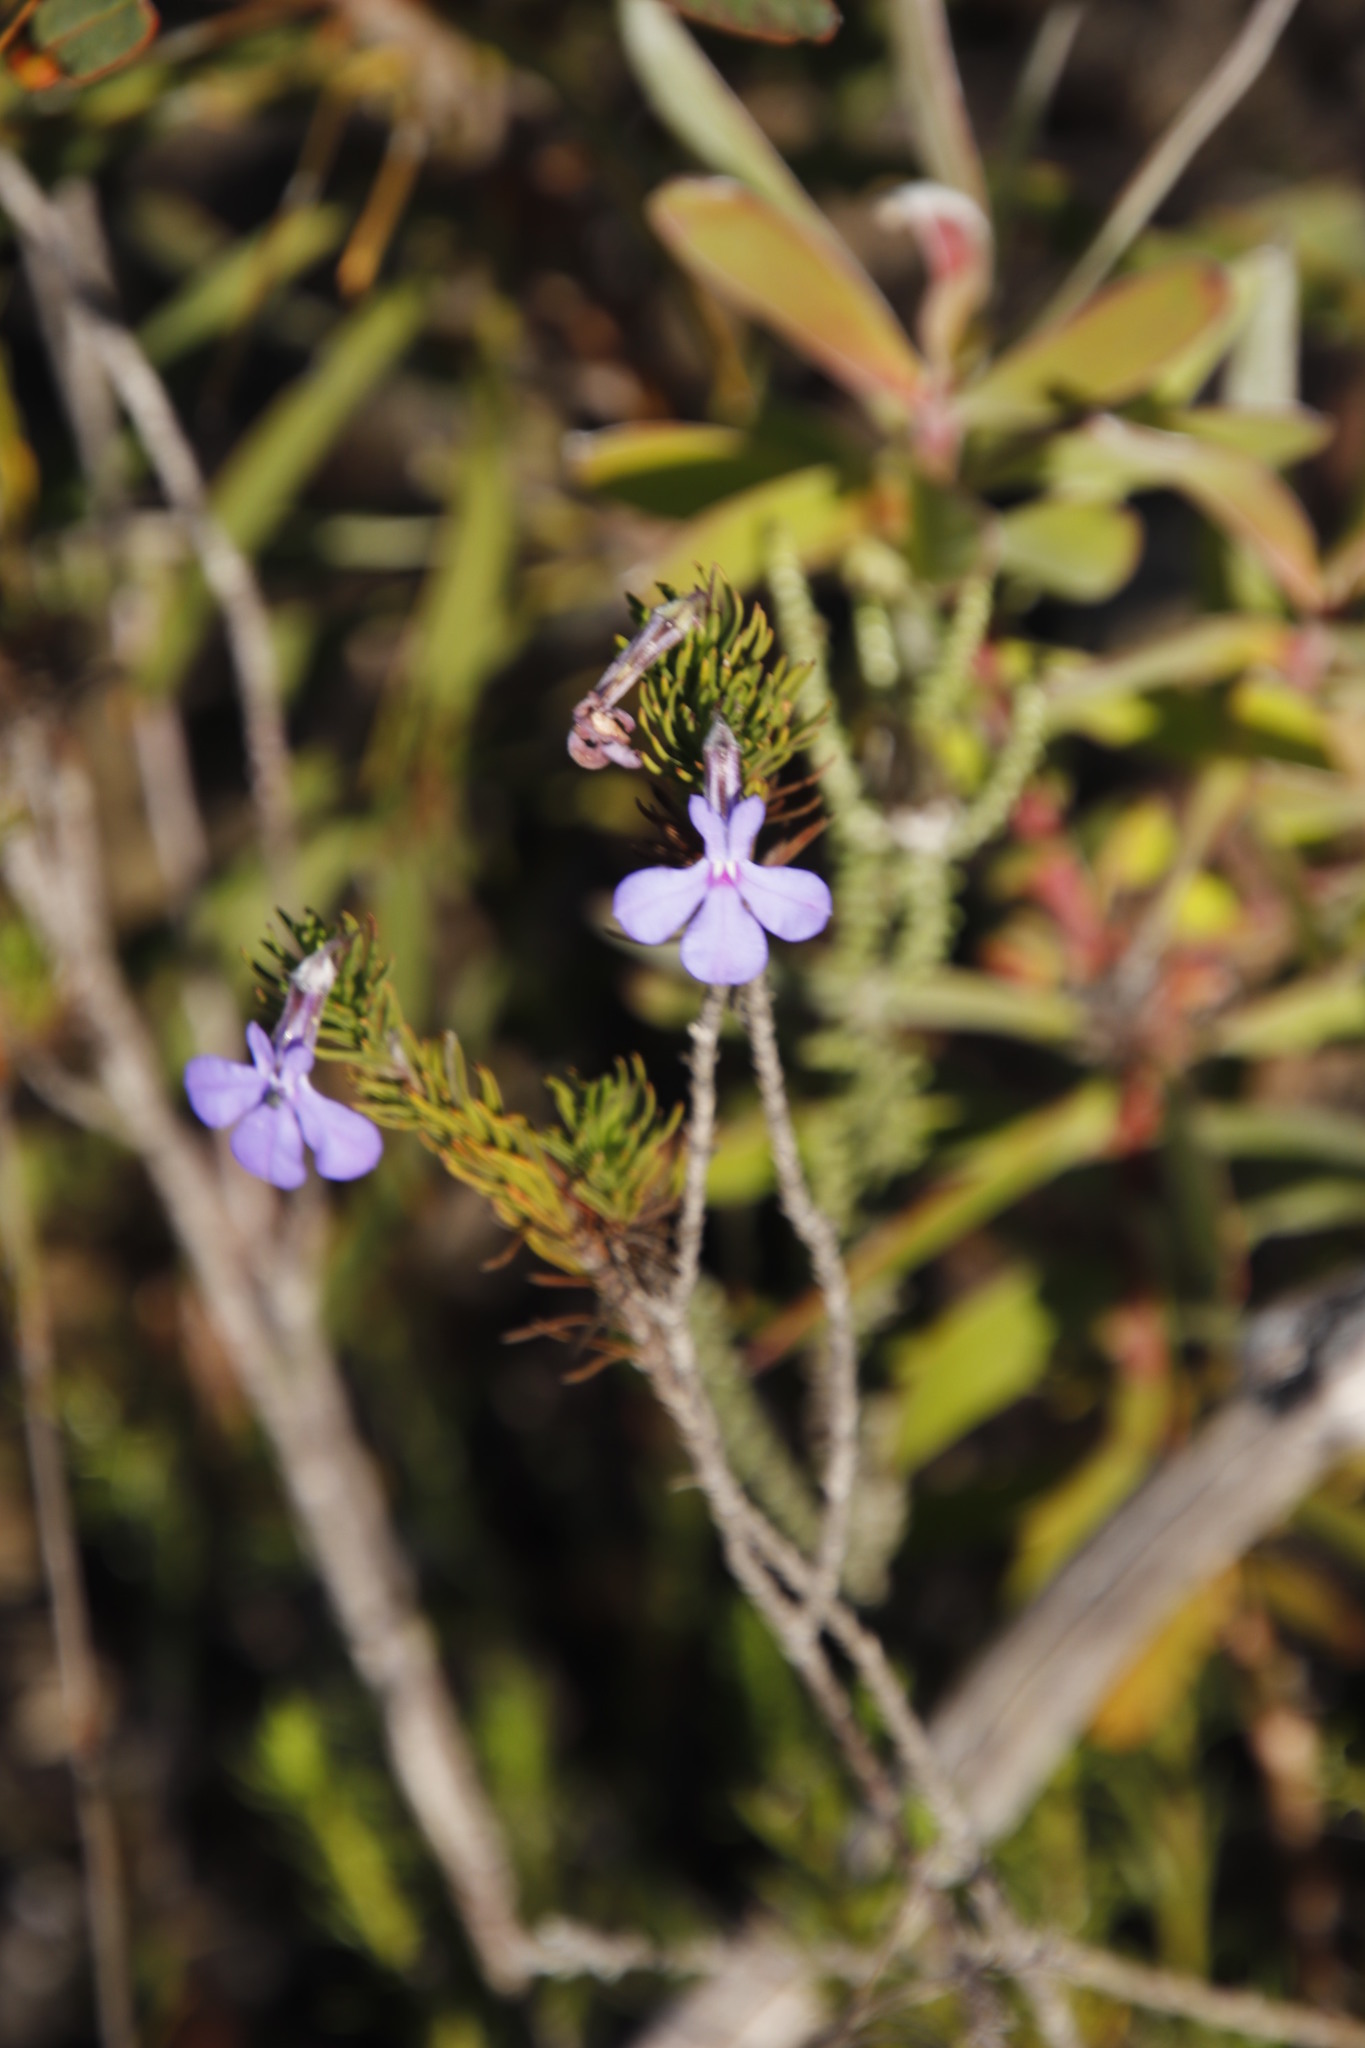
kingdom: Plantae
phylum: Tracheophyta
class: Magnoliopsida
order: Asterales
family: Campanulaceae
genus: Lobelia
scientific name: Lobelia pinifolia
